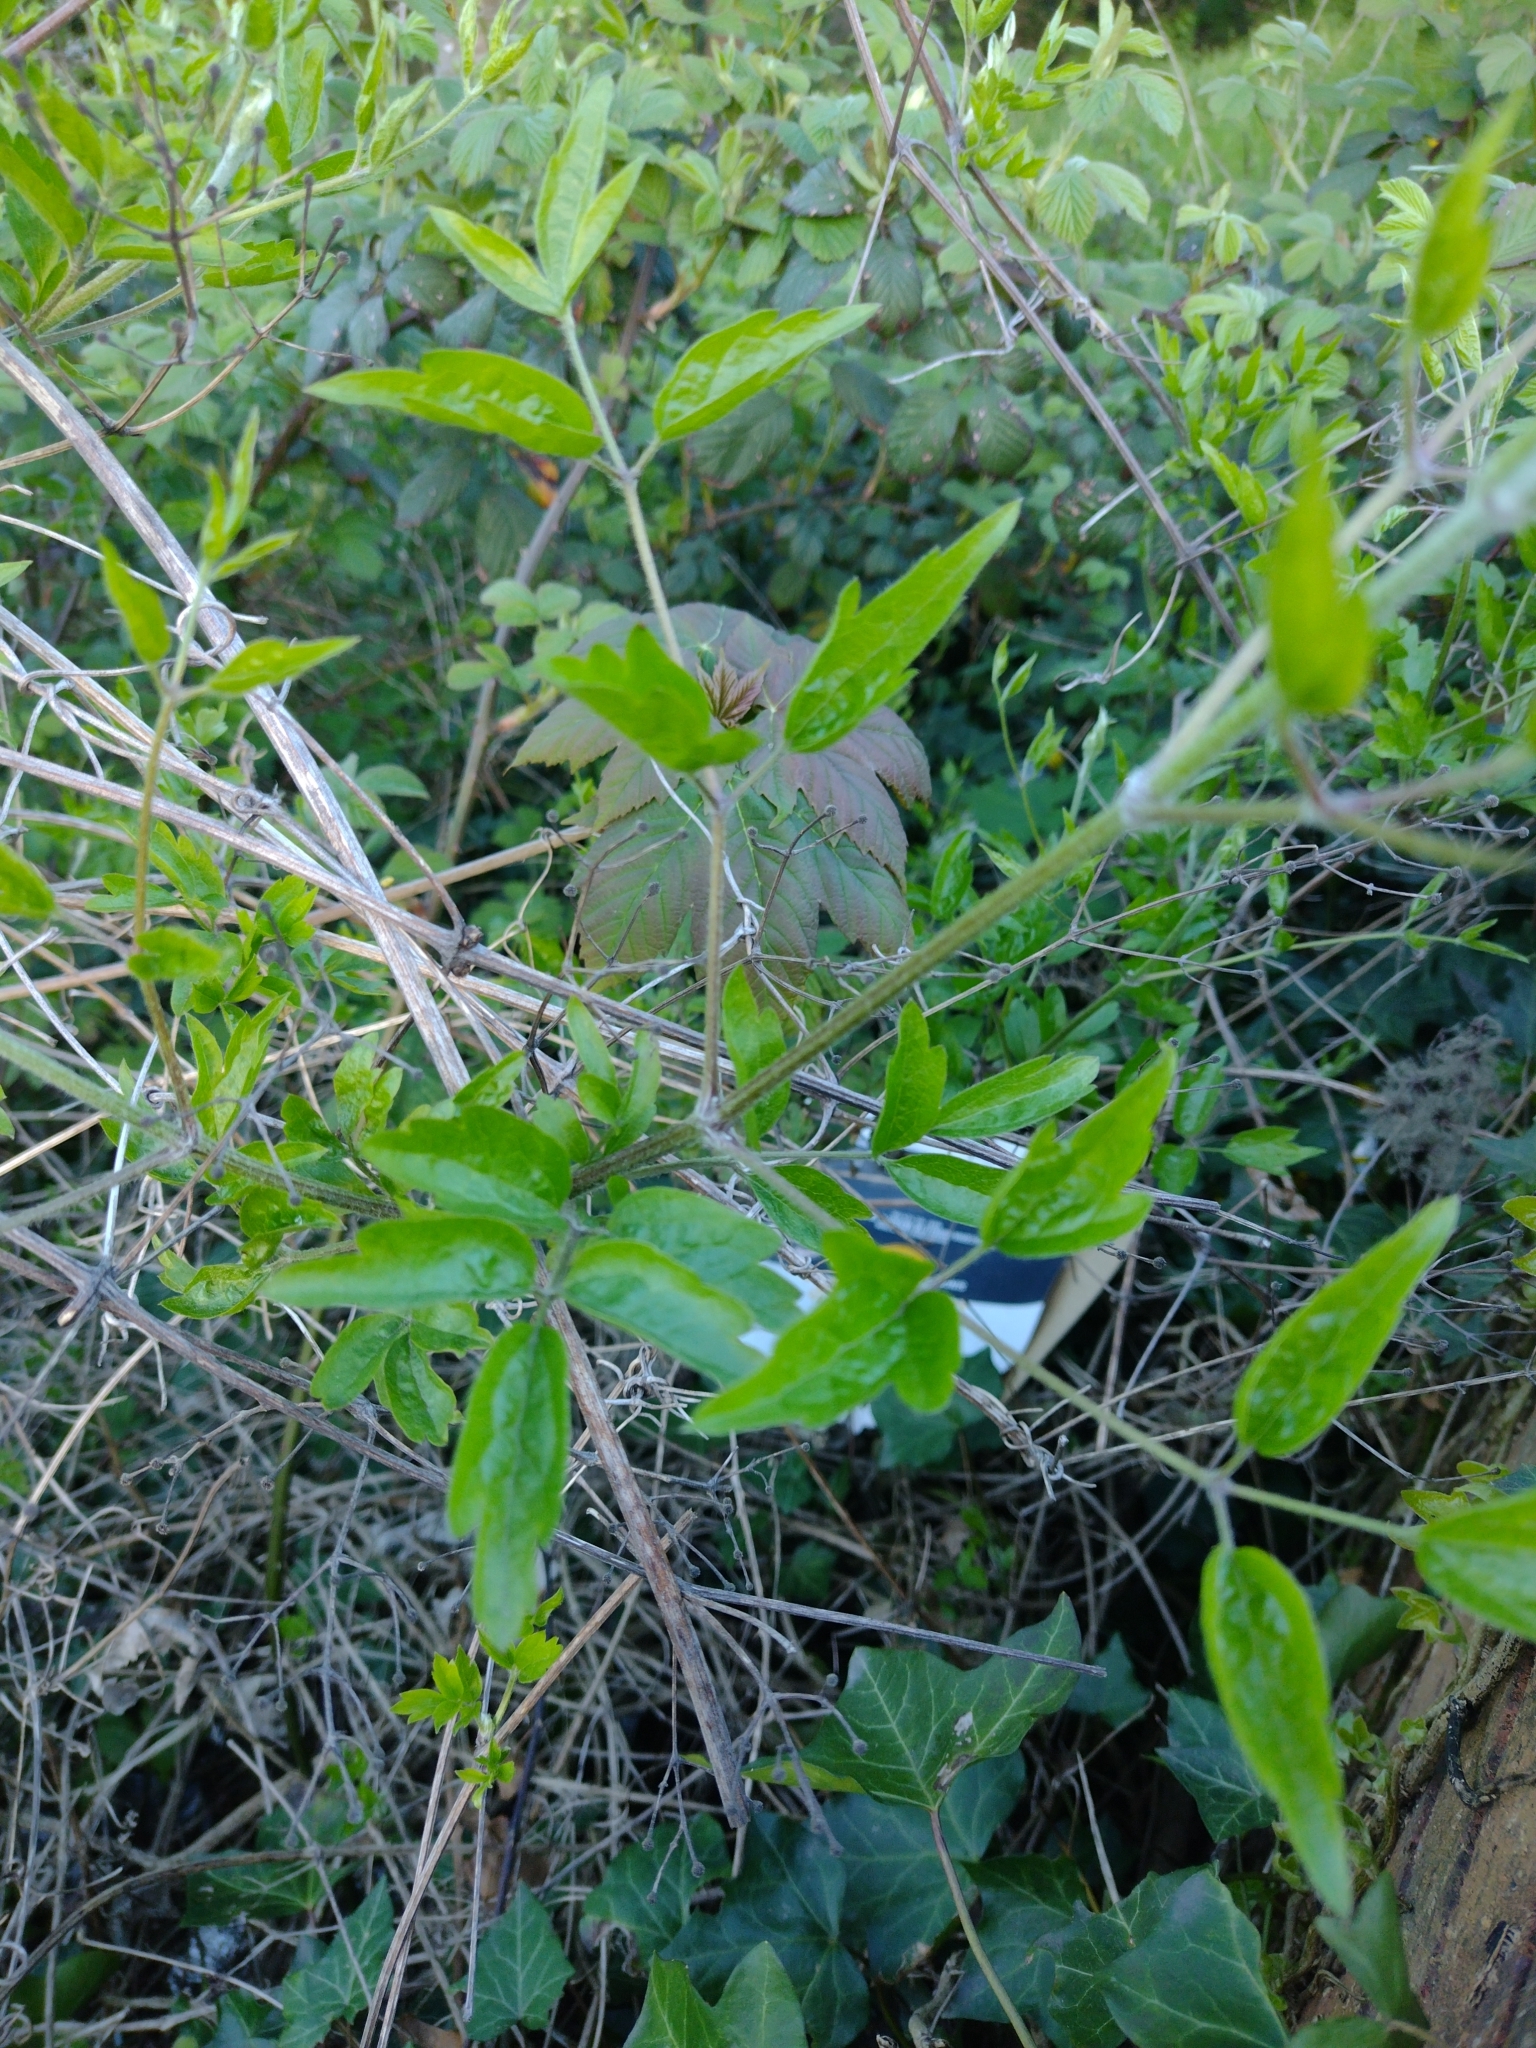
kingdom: Plantae
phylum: Tracheophyta
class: Magnoliopsida
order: Ranunculales
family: Ranunculaceae
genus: Clematis
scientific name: Clematis vitalba
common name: Evergreen clematis
